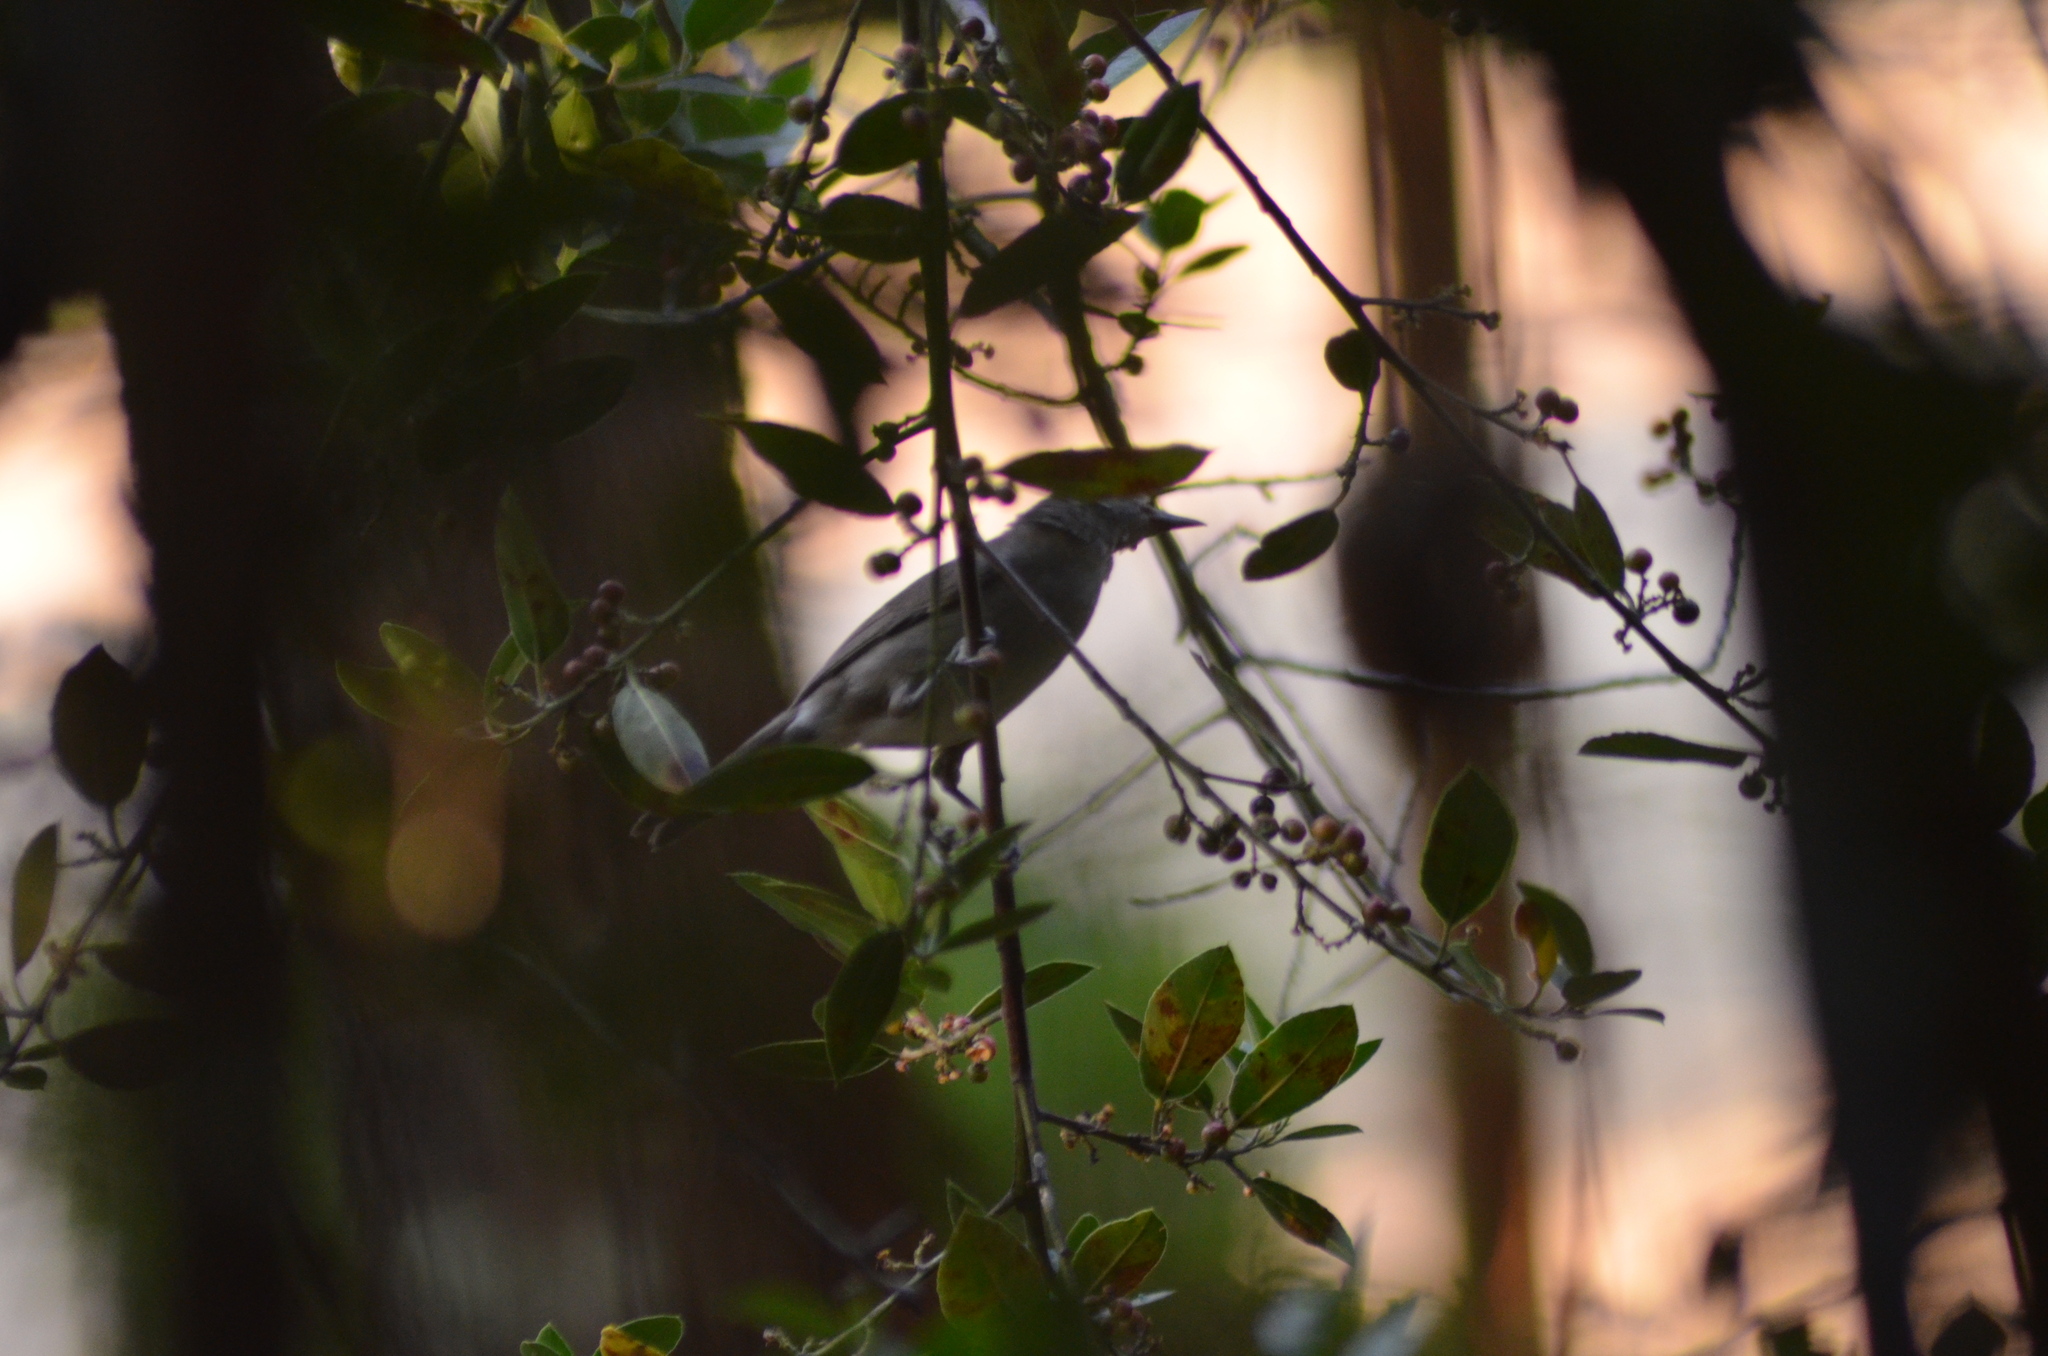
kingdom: Animalia
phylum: Chordata
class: Aves
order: Passeriformes
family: Sylviidae
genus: Sylvia
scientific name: Sylvia atricapilla
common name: Eurasian blackcap
